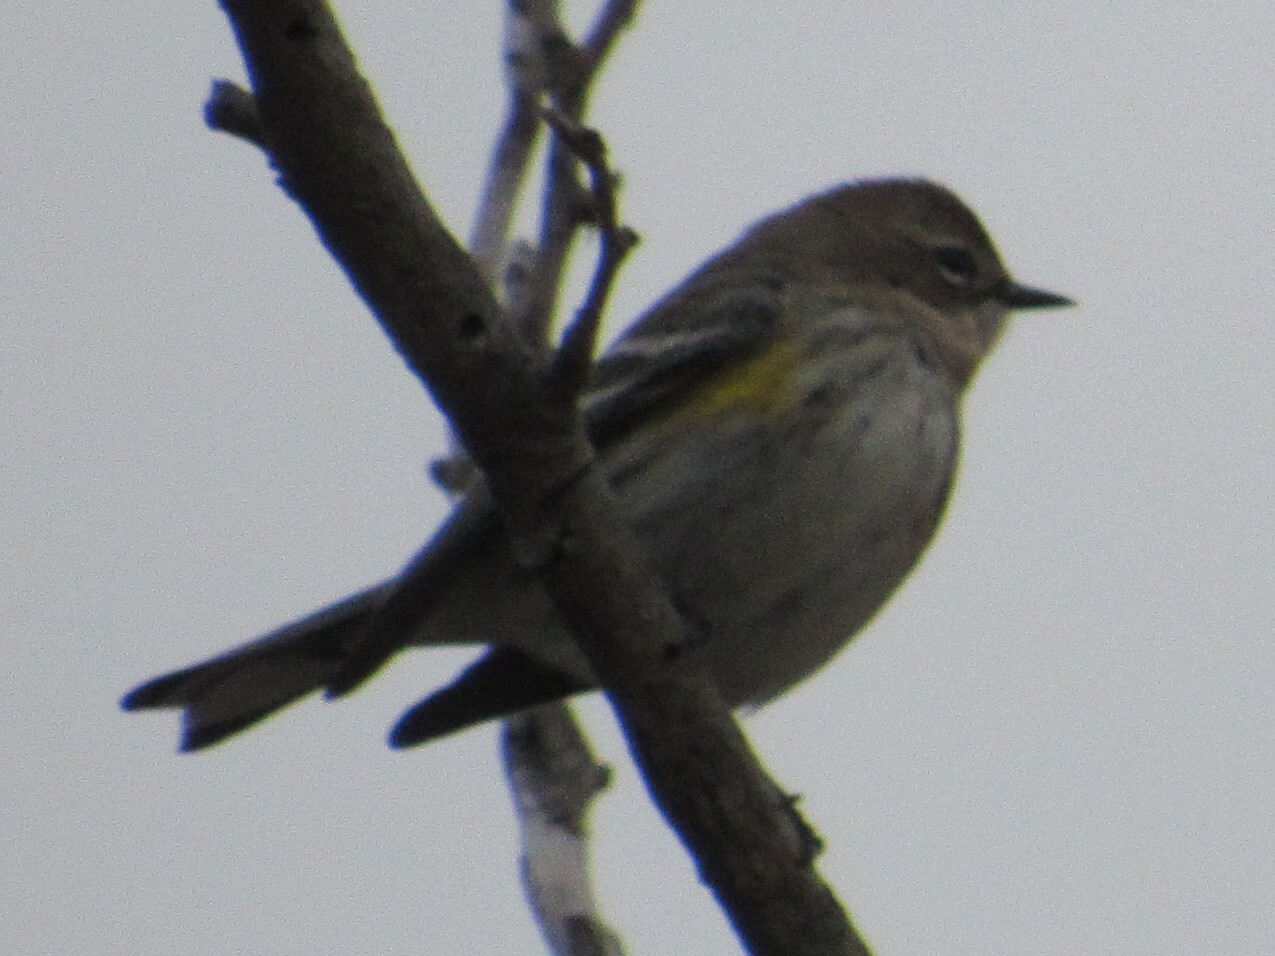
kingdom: Animalia
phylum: Chordata
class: Aves
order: Passeriformes
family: Parulidae
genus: Setophaga
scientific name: Setophaga coronata
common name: Myrtle warbler
